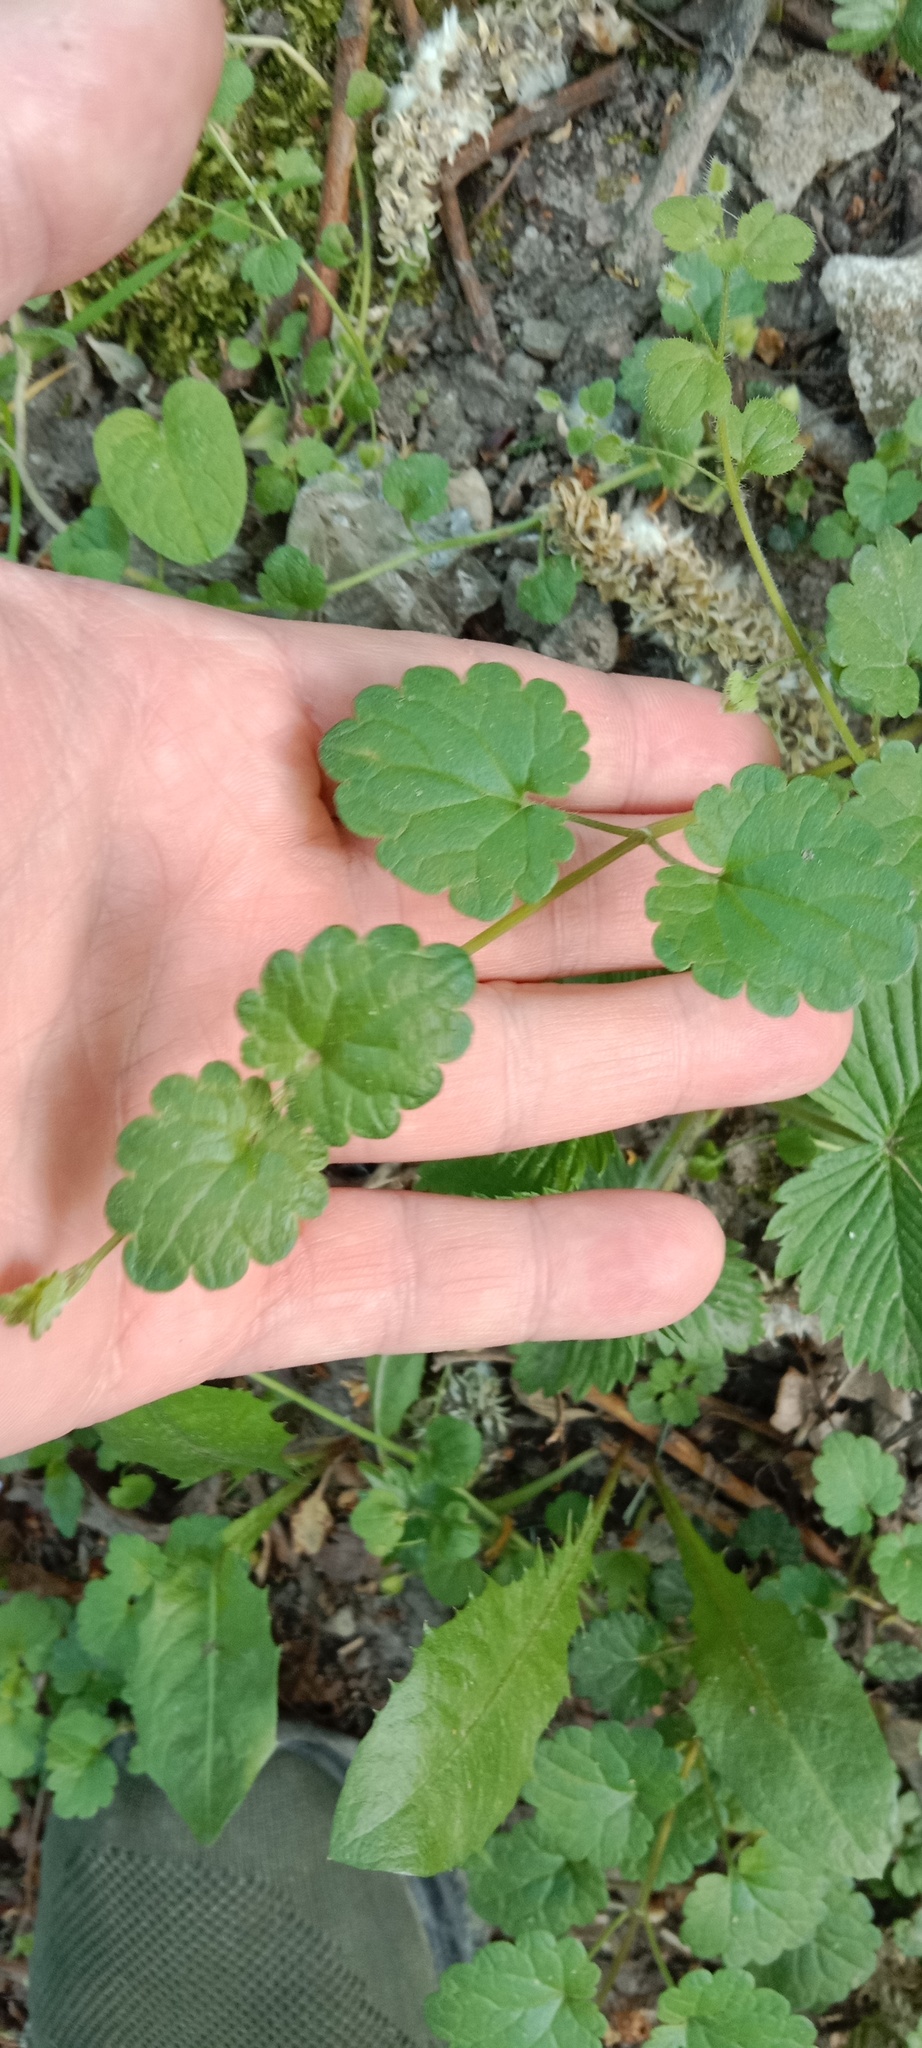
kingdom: Plantae
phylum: Tracheophyta
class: Magnoliopsida
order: Lamiales
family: Lamiaceae
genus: Glechoma
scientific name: Glechoma hederacea
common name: Ground ivy
